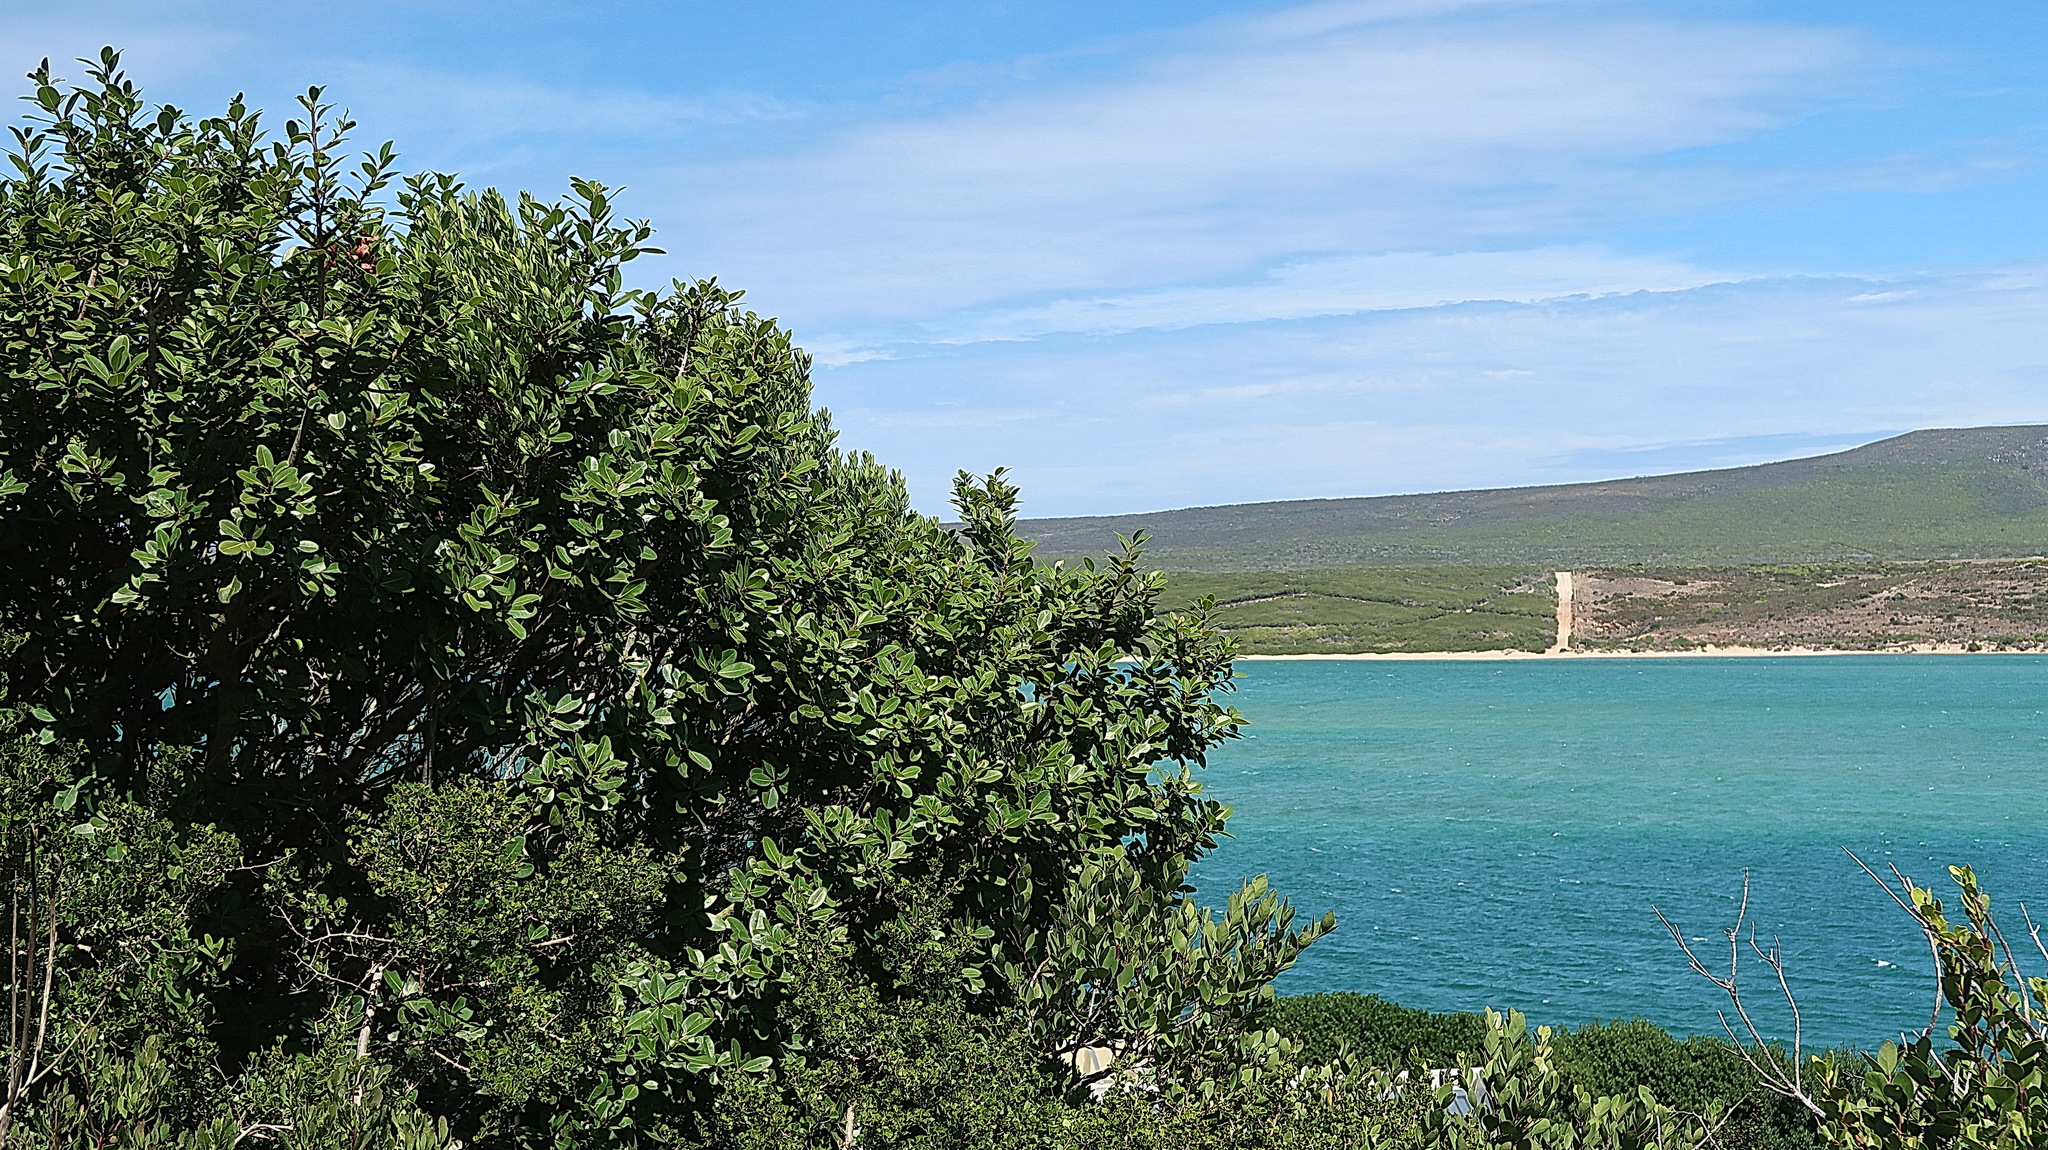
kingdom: Plantae
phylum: Tracheophyta
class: Magnoliopsida
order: Ericales
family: Sapotaceae
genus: Sideroxylon
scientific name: Sideroxylon inerme
